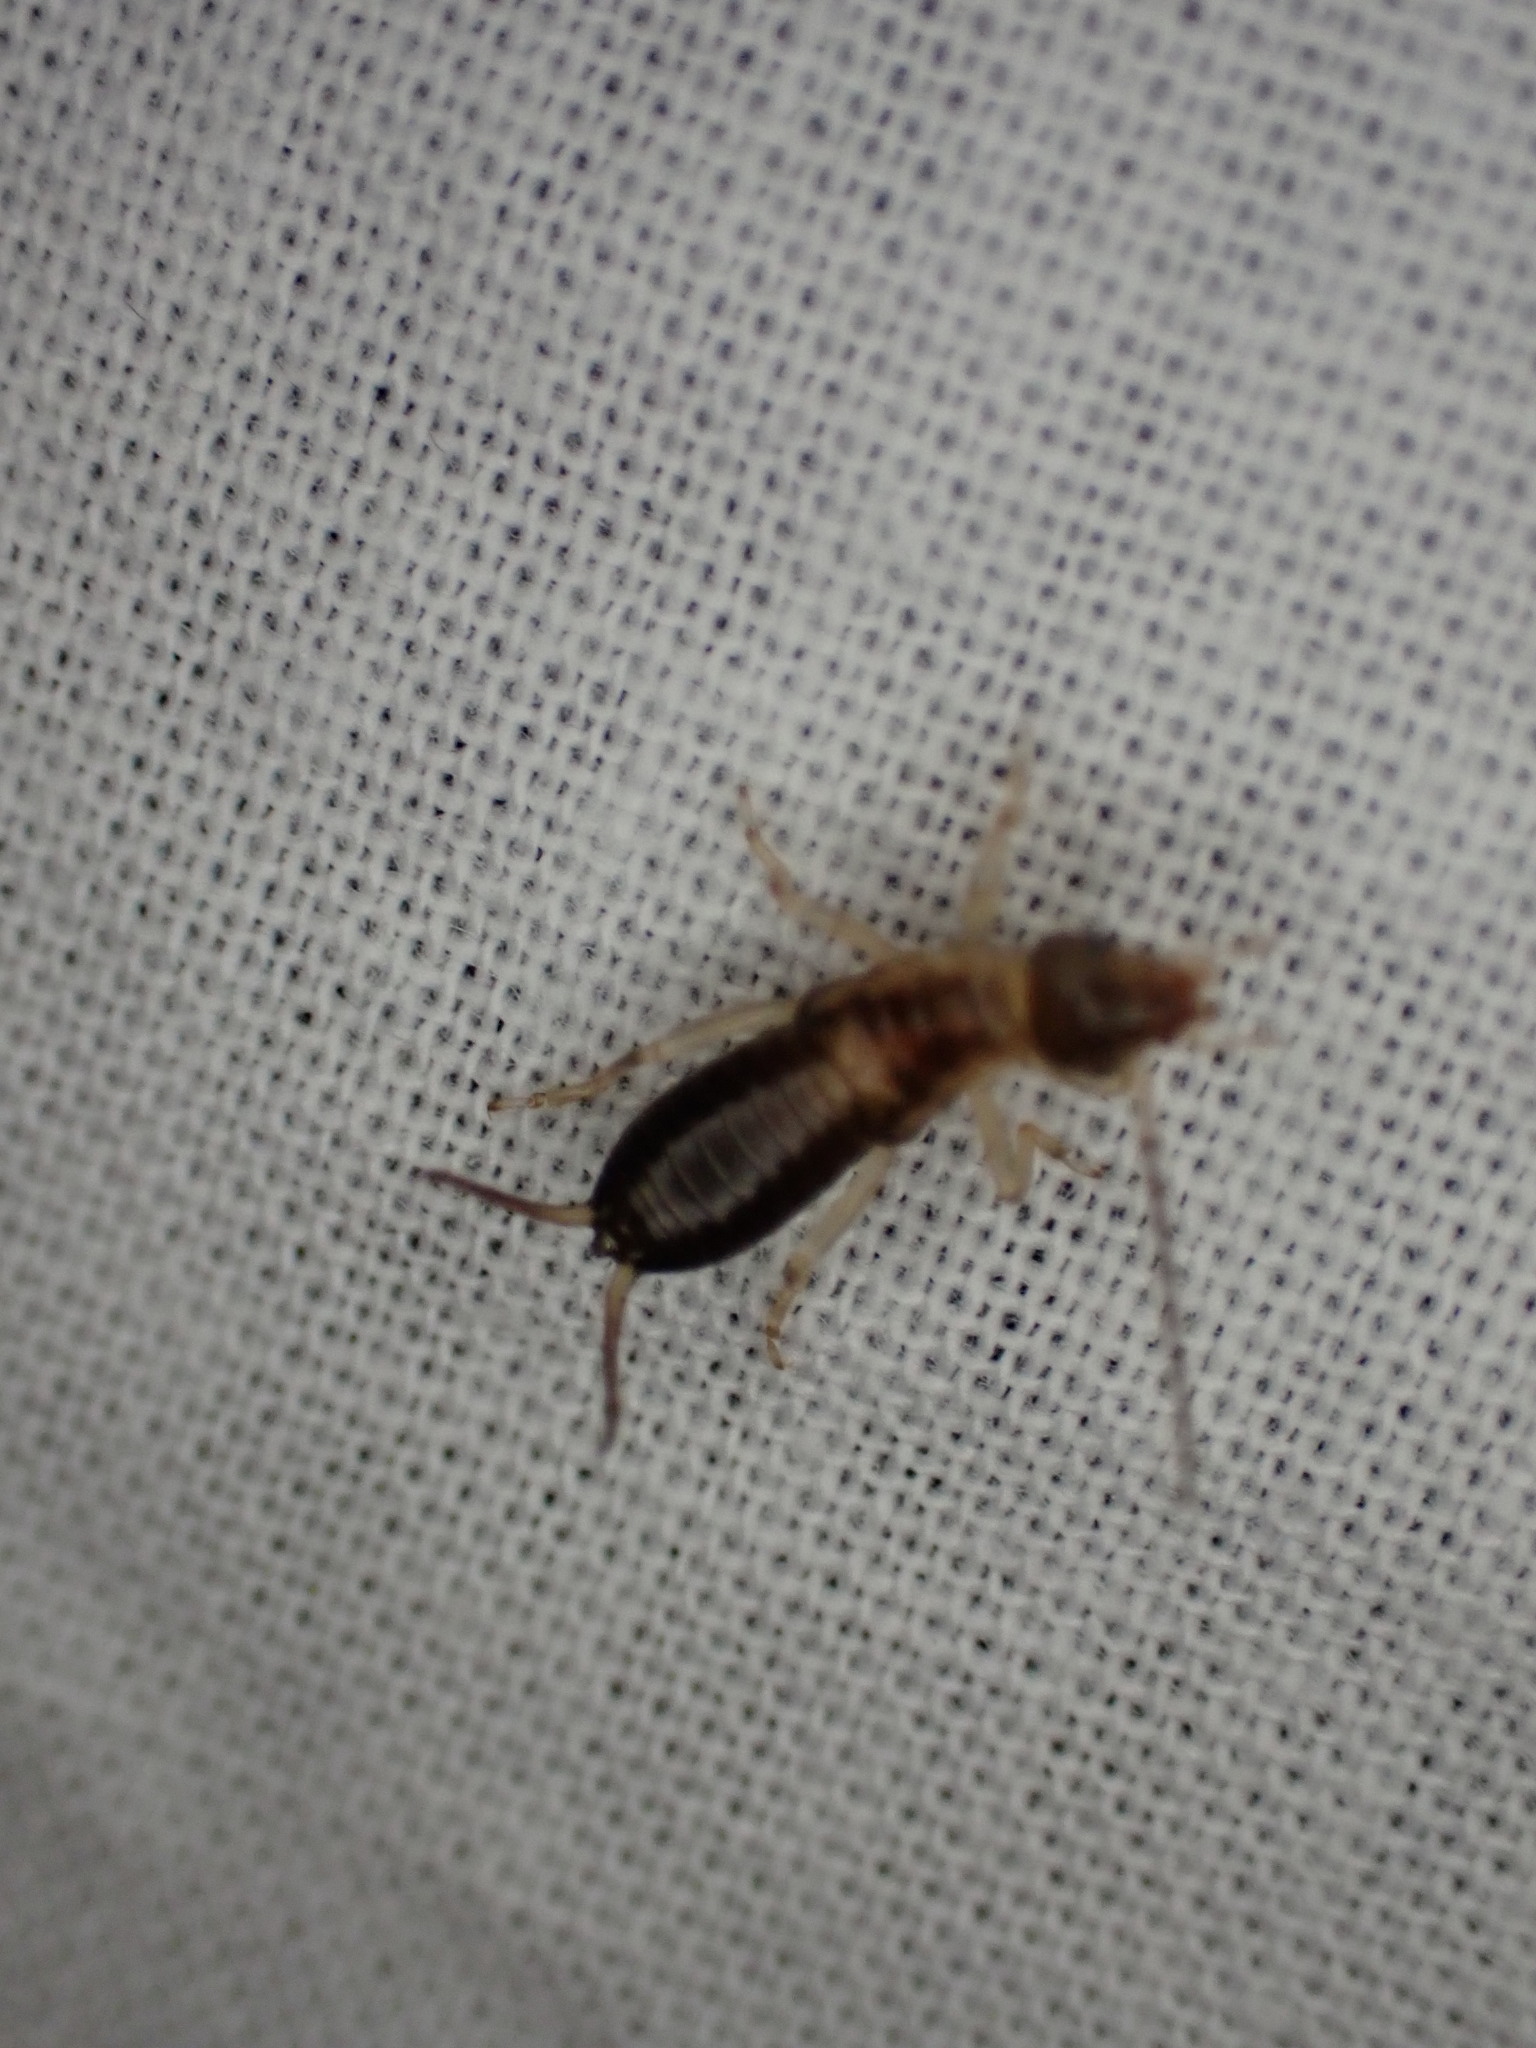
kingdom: Animalia
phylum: Arthropoda
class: Insecta
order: Dermaptera
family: Forficulidae
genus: Forficula
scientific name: Forficula
